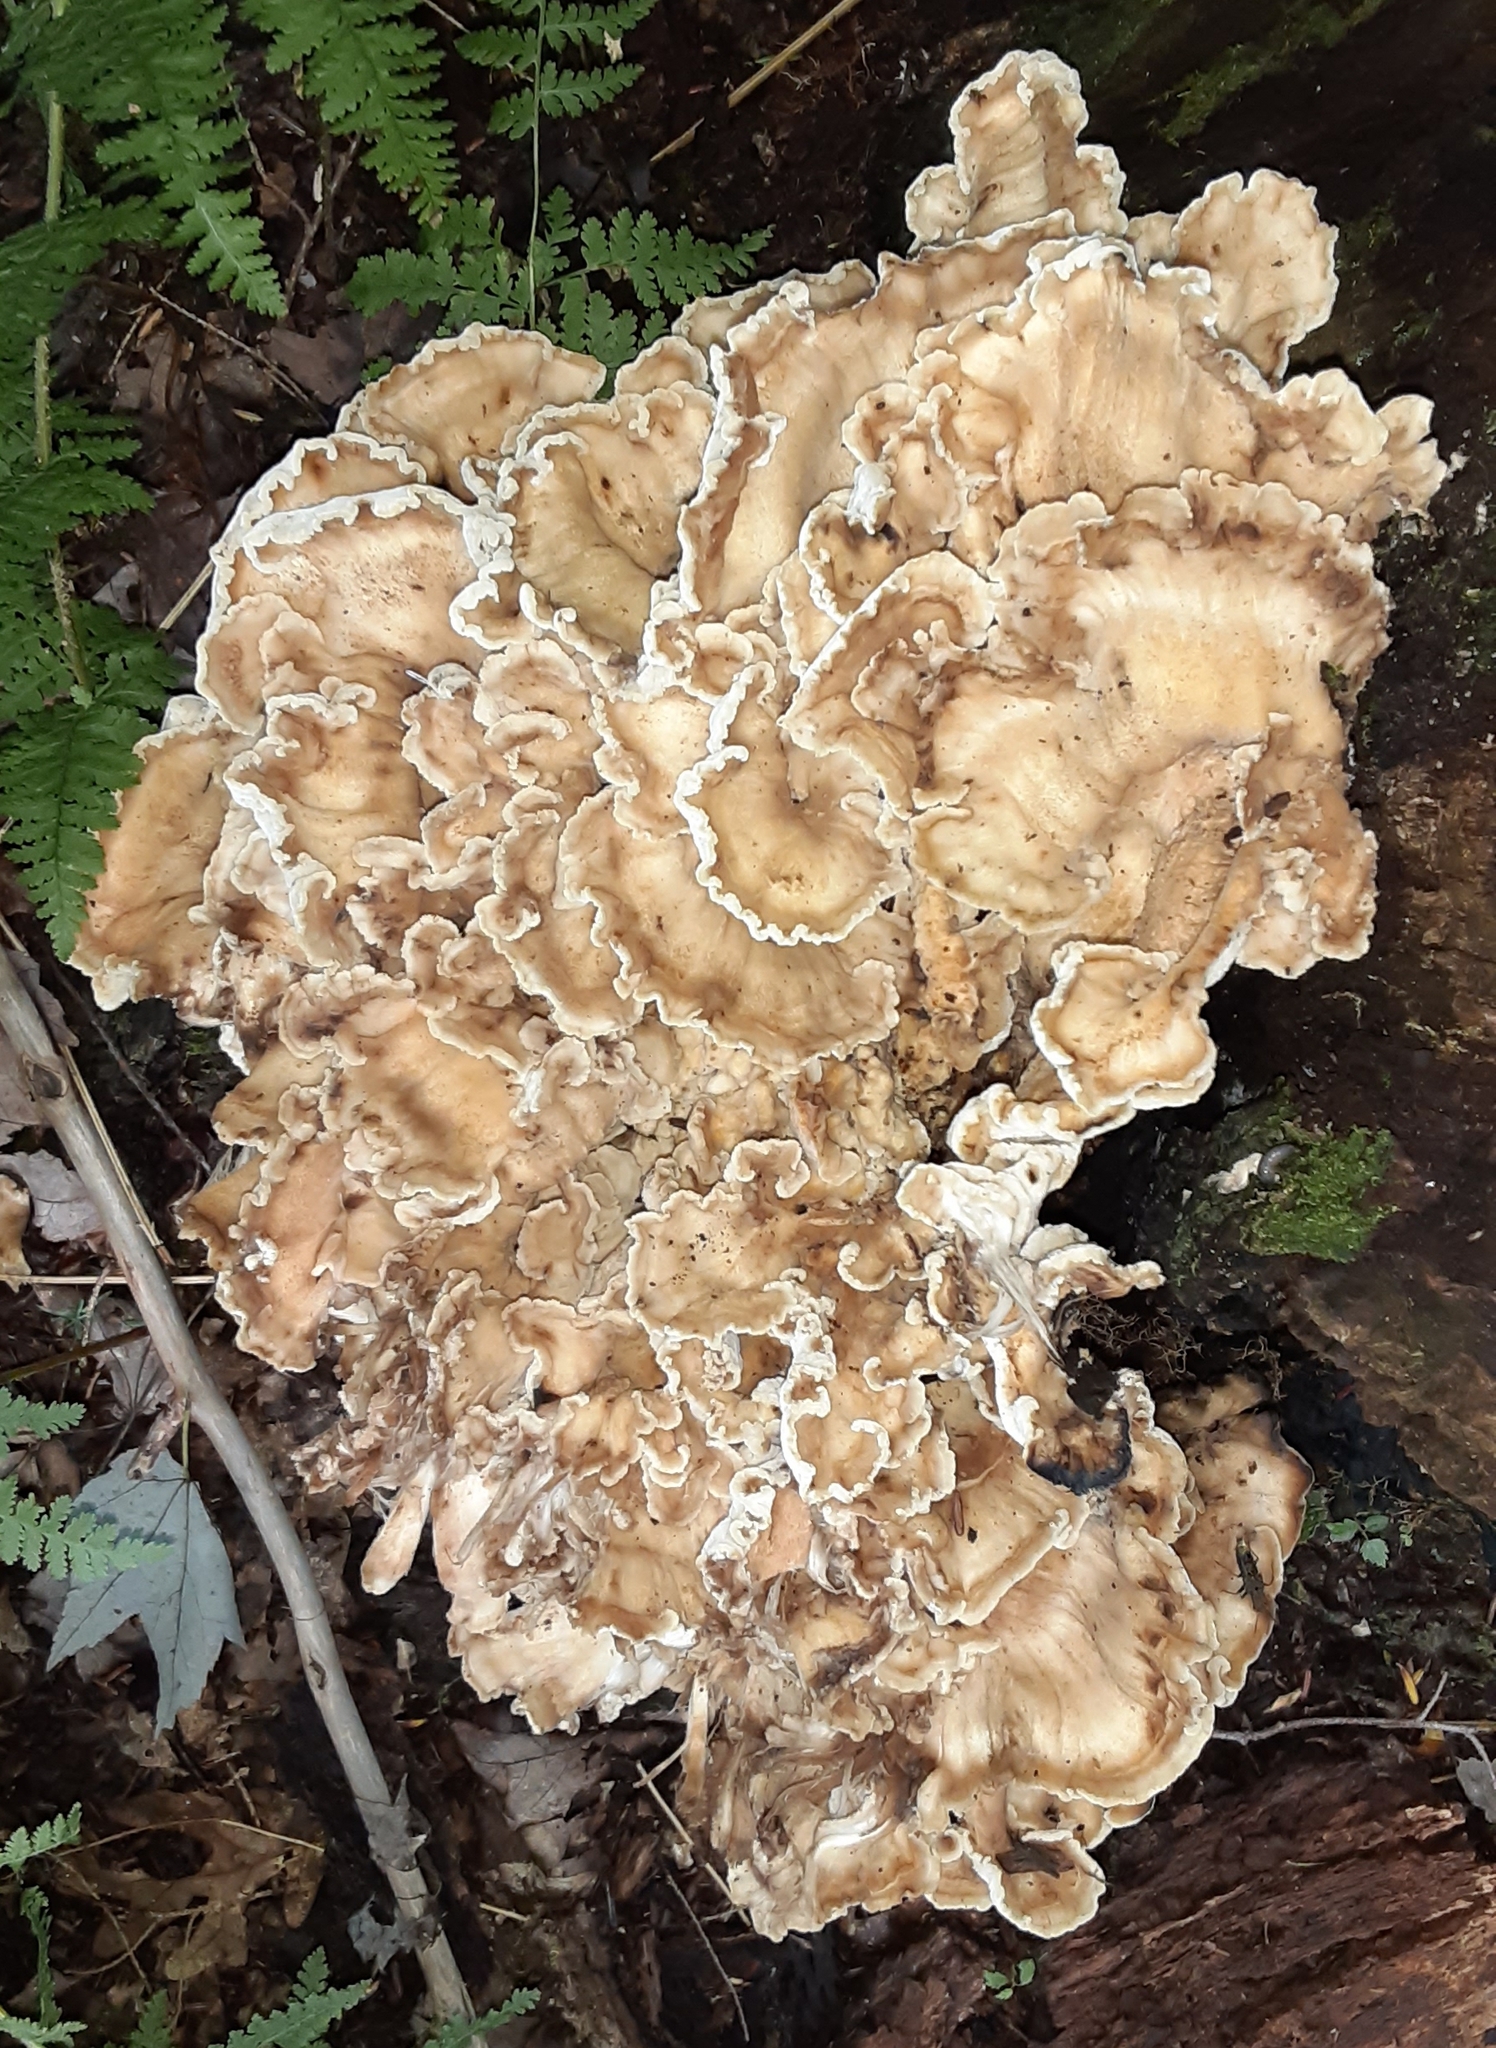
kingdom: Fungi
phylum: Basidiomycota
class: Agaricomycetes
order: Polyporales
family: Meripilaceae
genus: Meripilus
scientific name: Meripilus sumstinei
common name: Black-staining polypore
